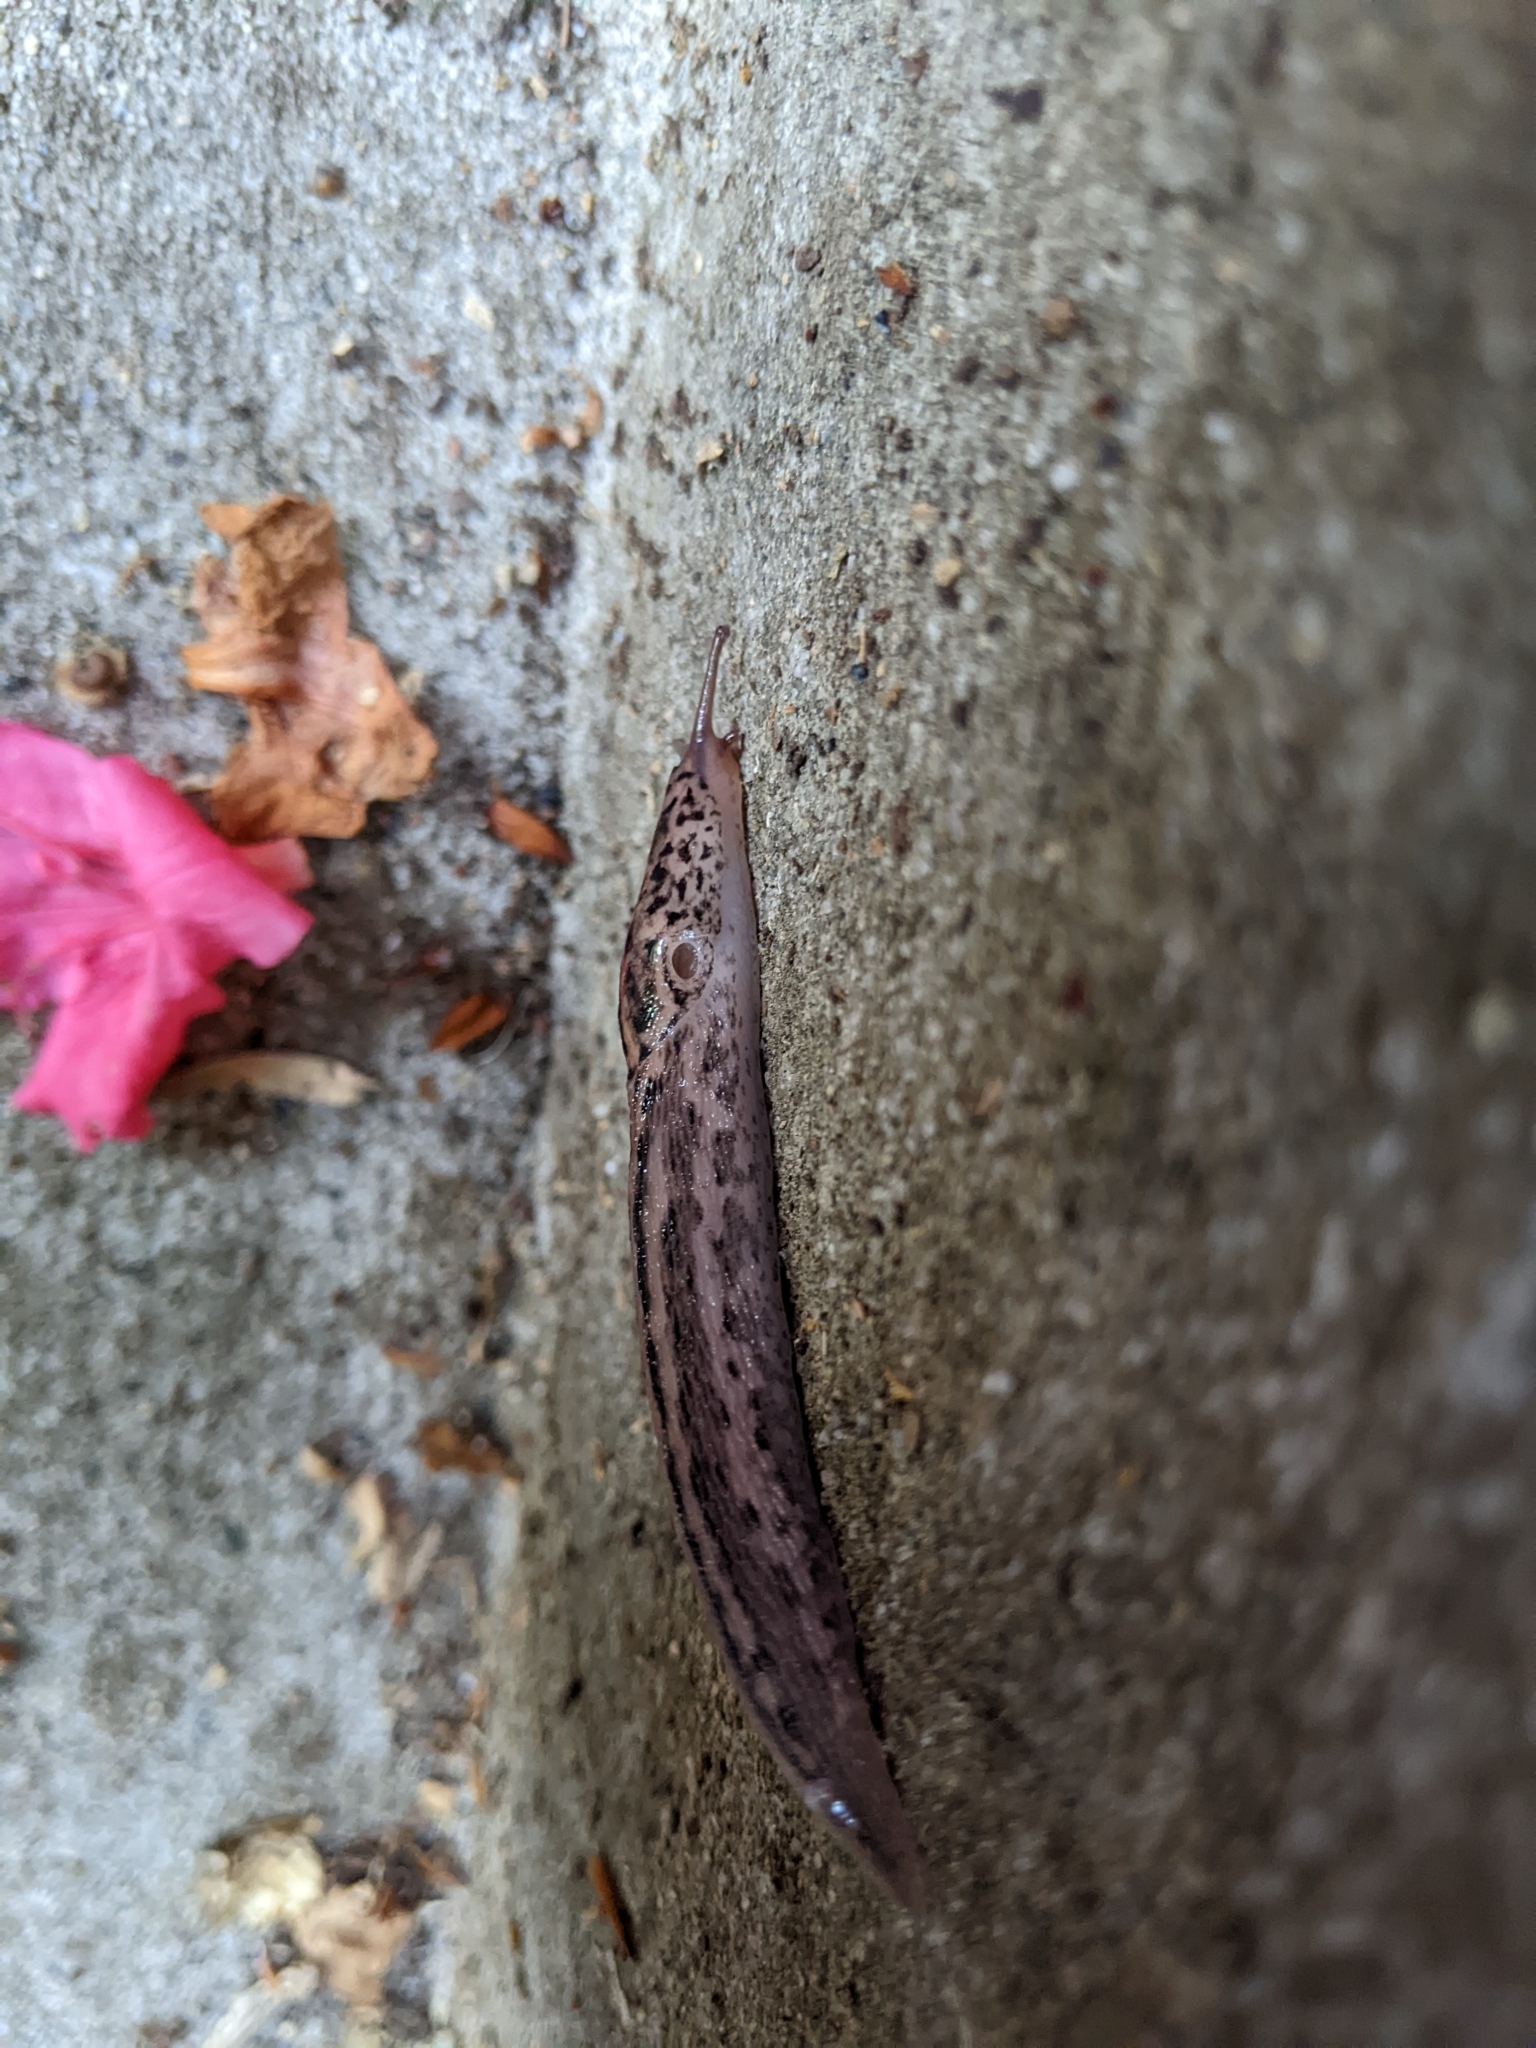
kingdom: Animalia
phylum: Mollusca
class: Gastropoda
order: Stylommatophora
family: Limacidae
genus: Limax
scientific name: Limax maximus
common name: Great grey slug
